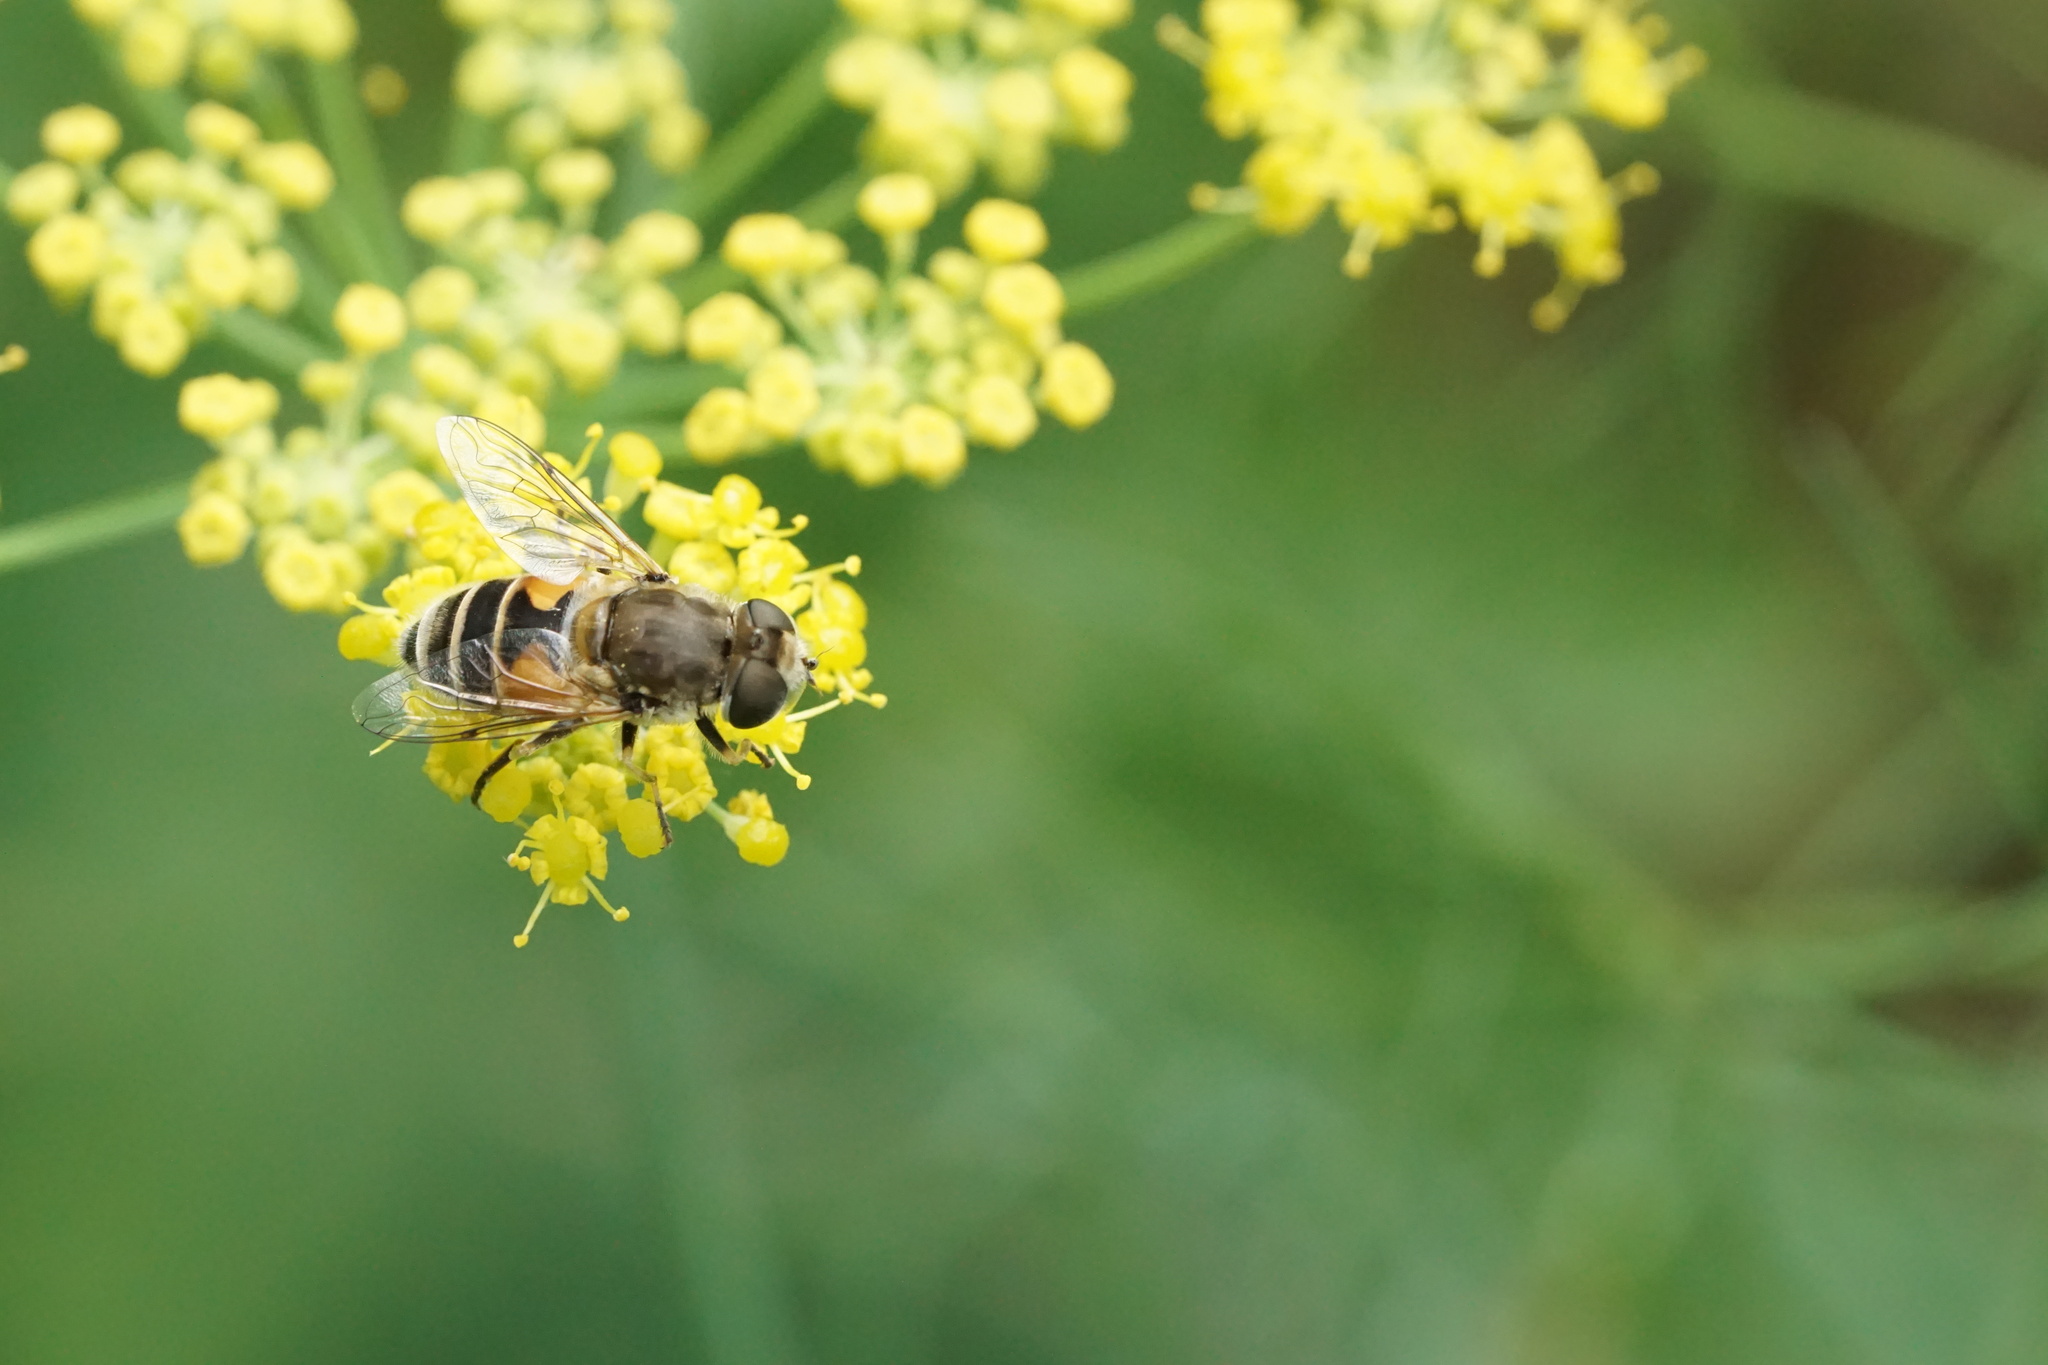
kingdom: Animalia
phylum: Arthropoda
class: Insecta
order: Diptera
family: Syrphidae
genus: Eristalis
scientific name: Eristalis arbustorum
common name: Hover fly
